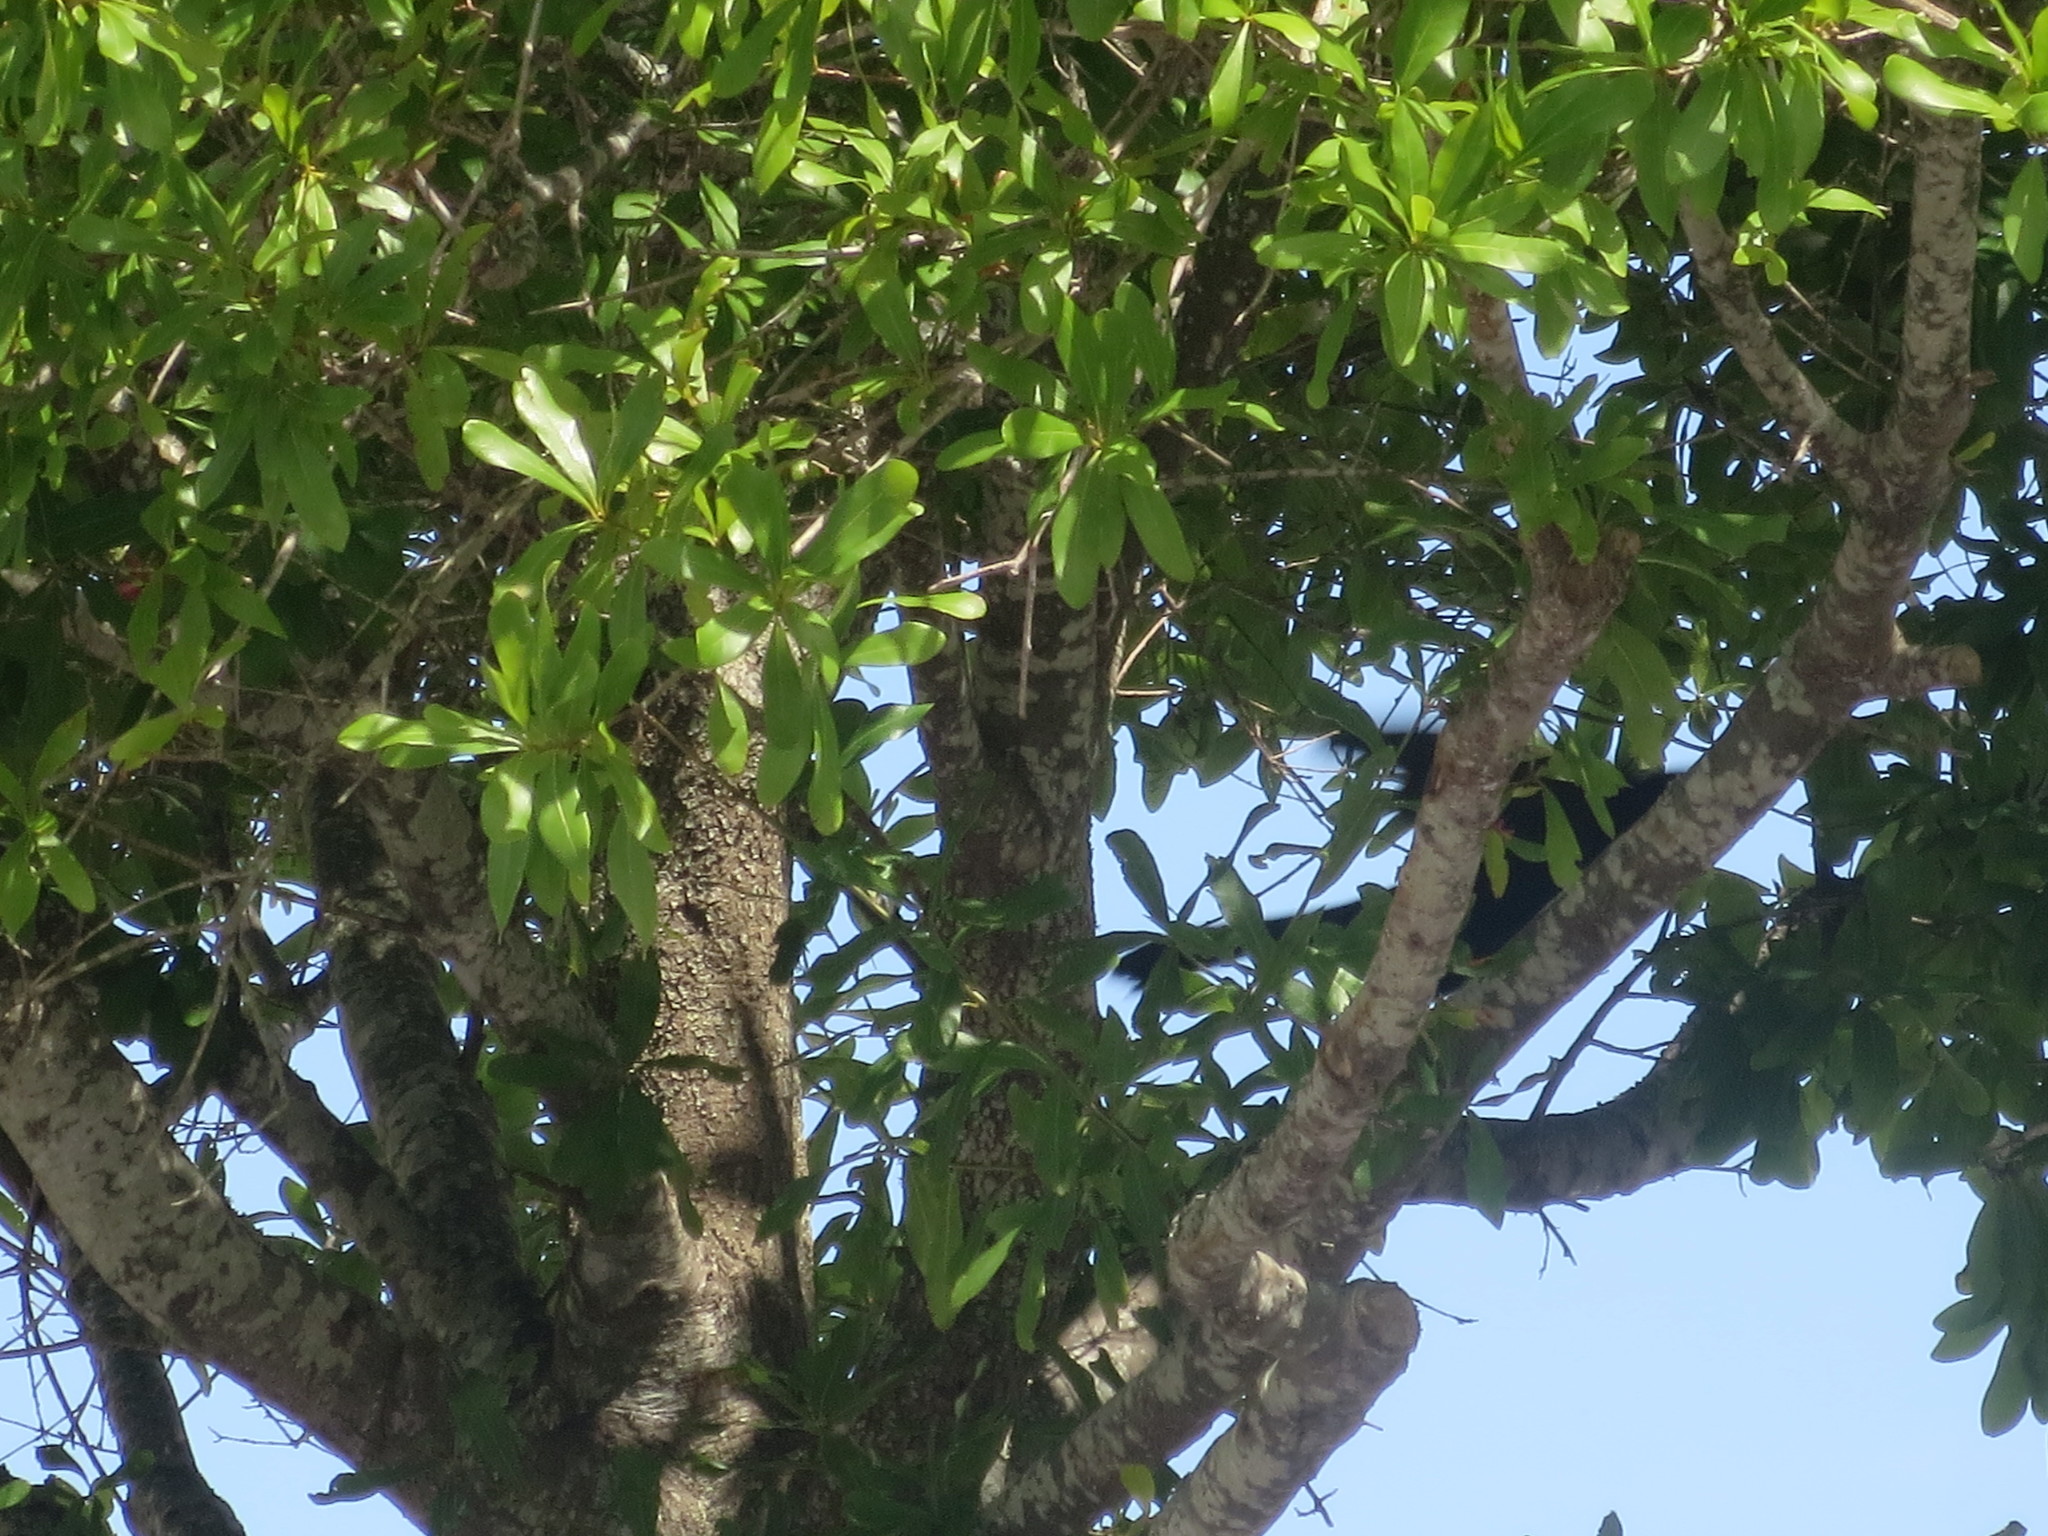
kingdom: Animalia
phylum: Chordata
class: Aves
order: Passeriformes
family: Icteridae
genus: Quiscalus
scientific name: Quiscalus major
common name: Boat-tailed grackle
